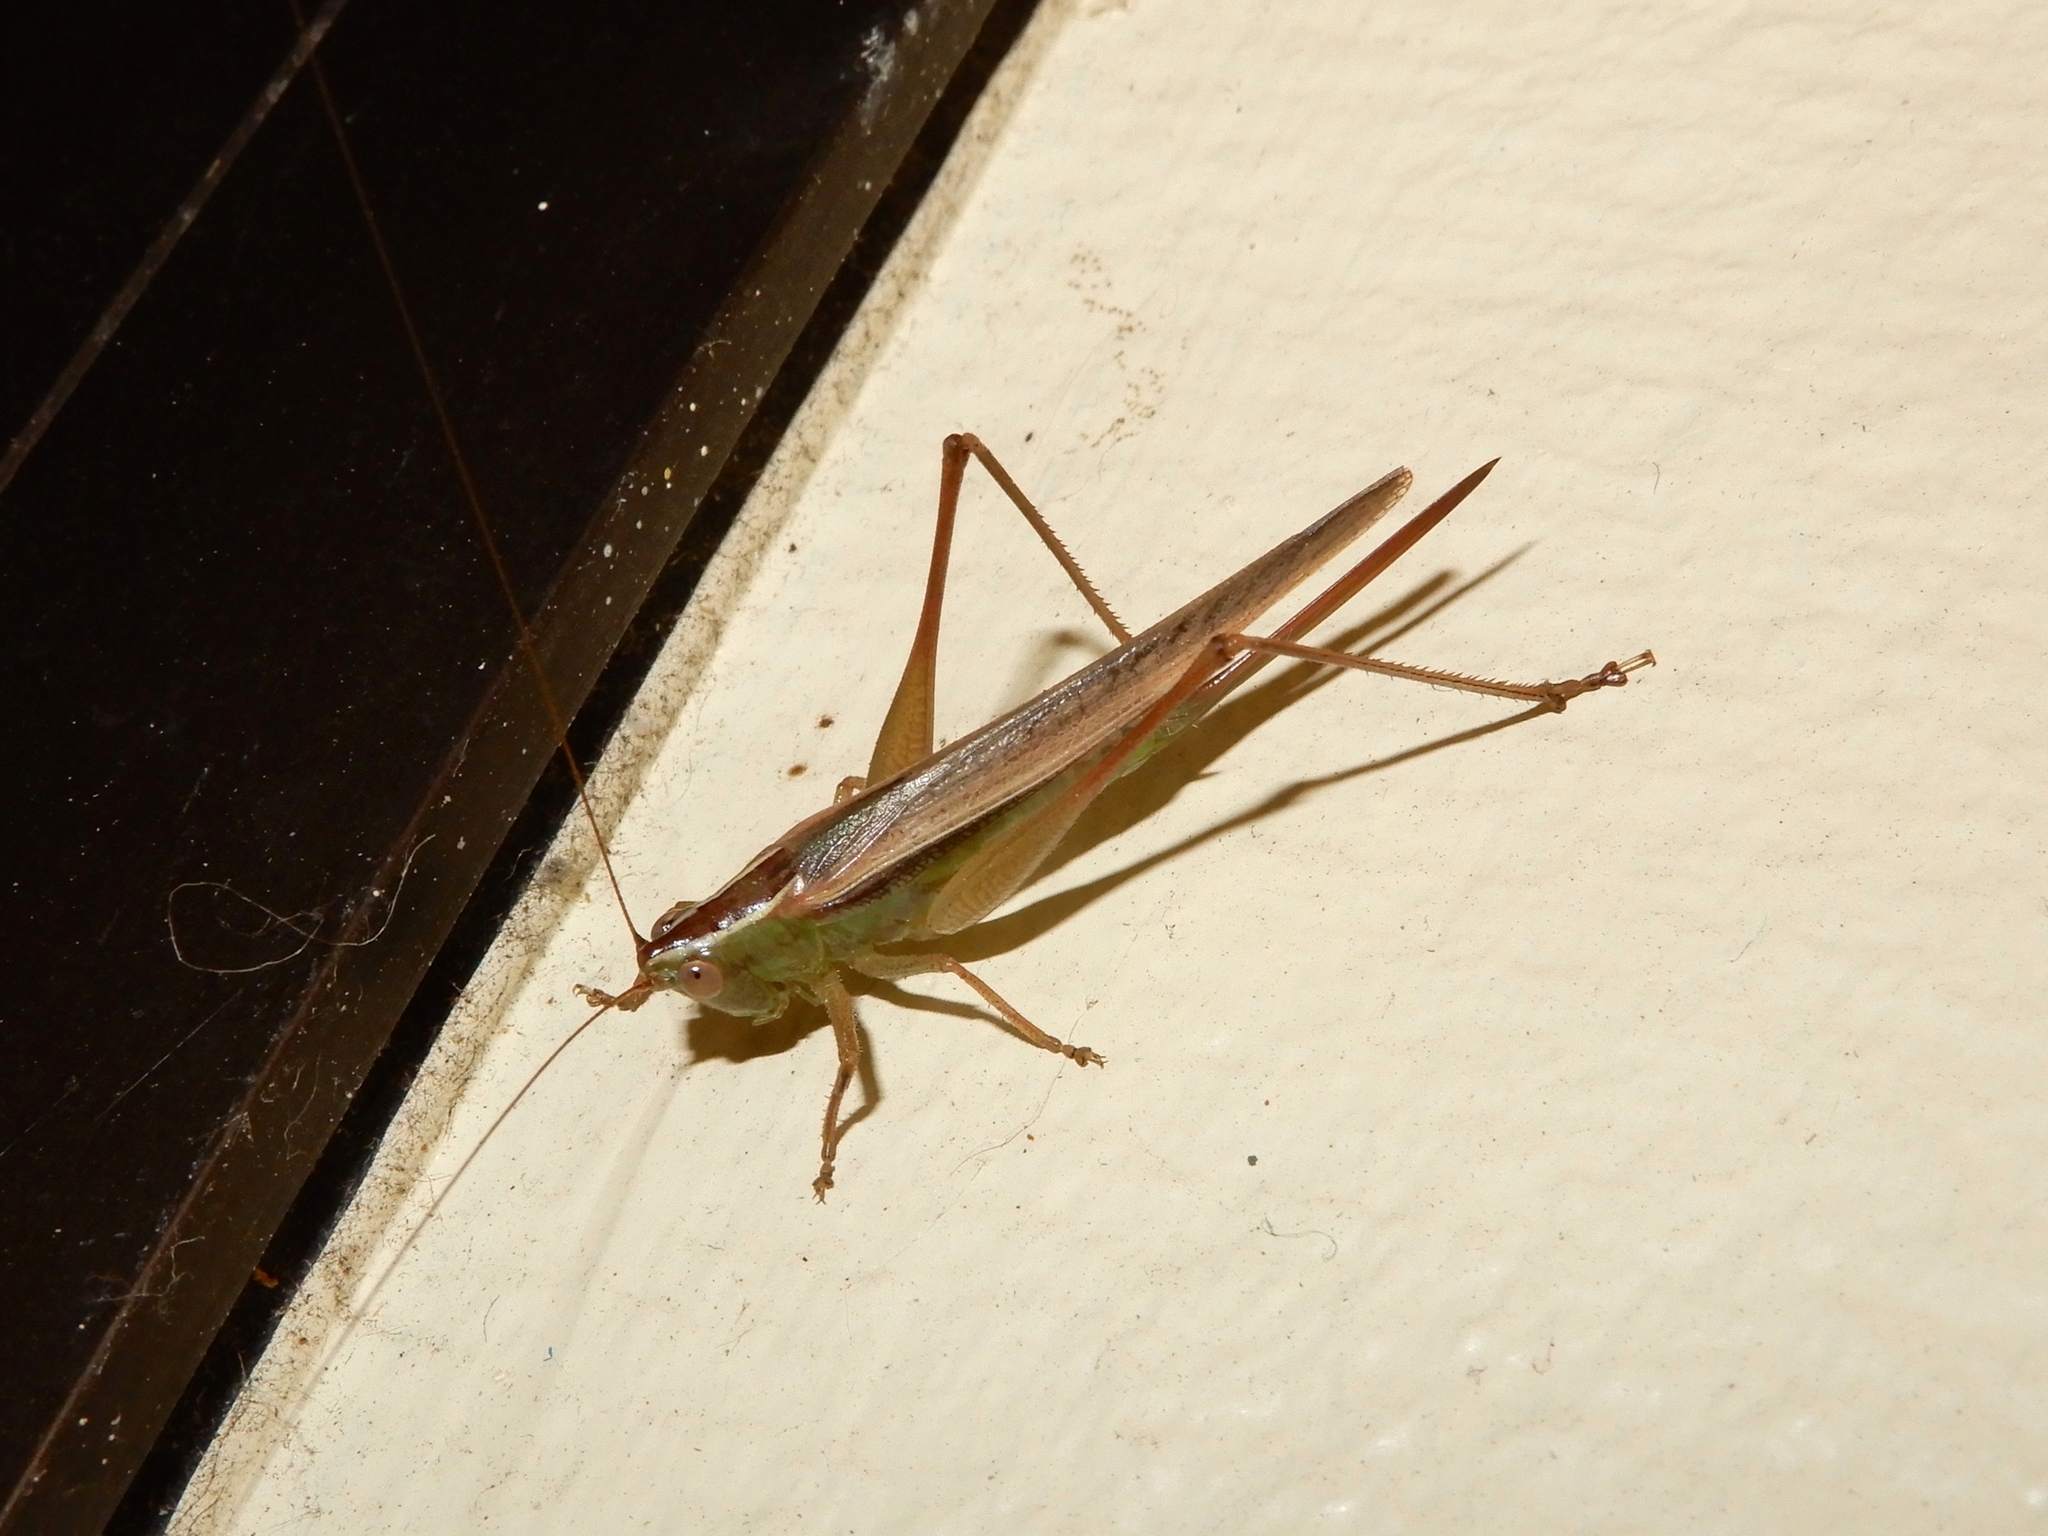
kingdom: Animalia
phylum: Arthropoda
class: Insecta
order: Orthoptera
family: Tettigoniidae
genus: Conocephalus
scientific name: Conocephalus albescens
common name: Whitish meadow katydid
